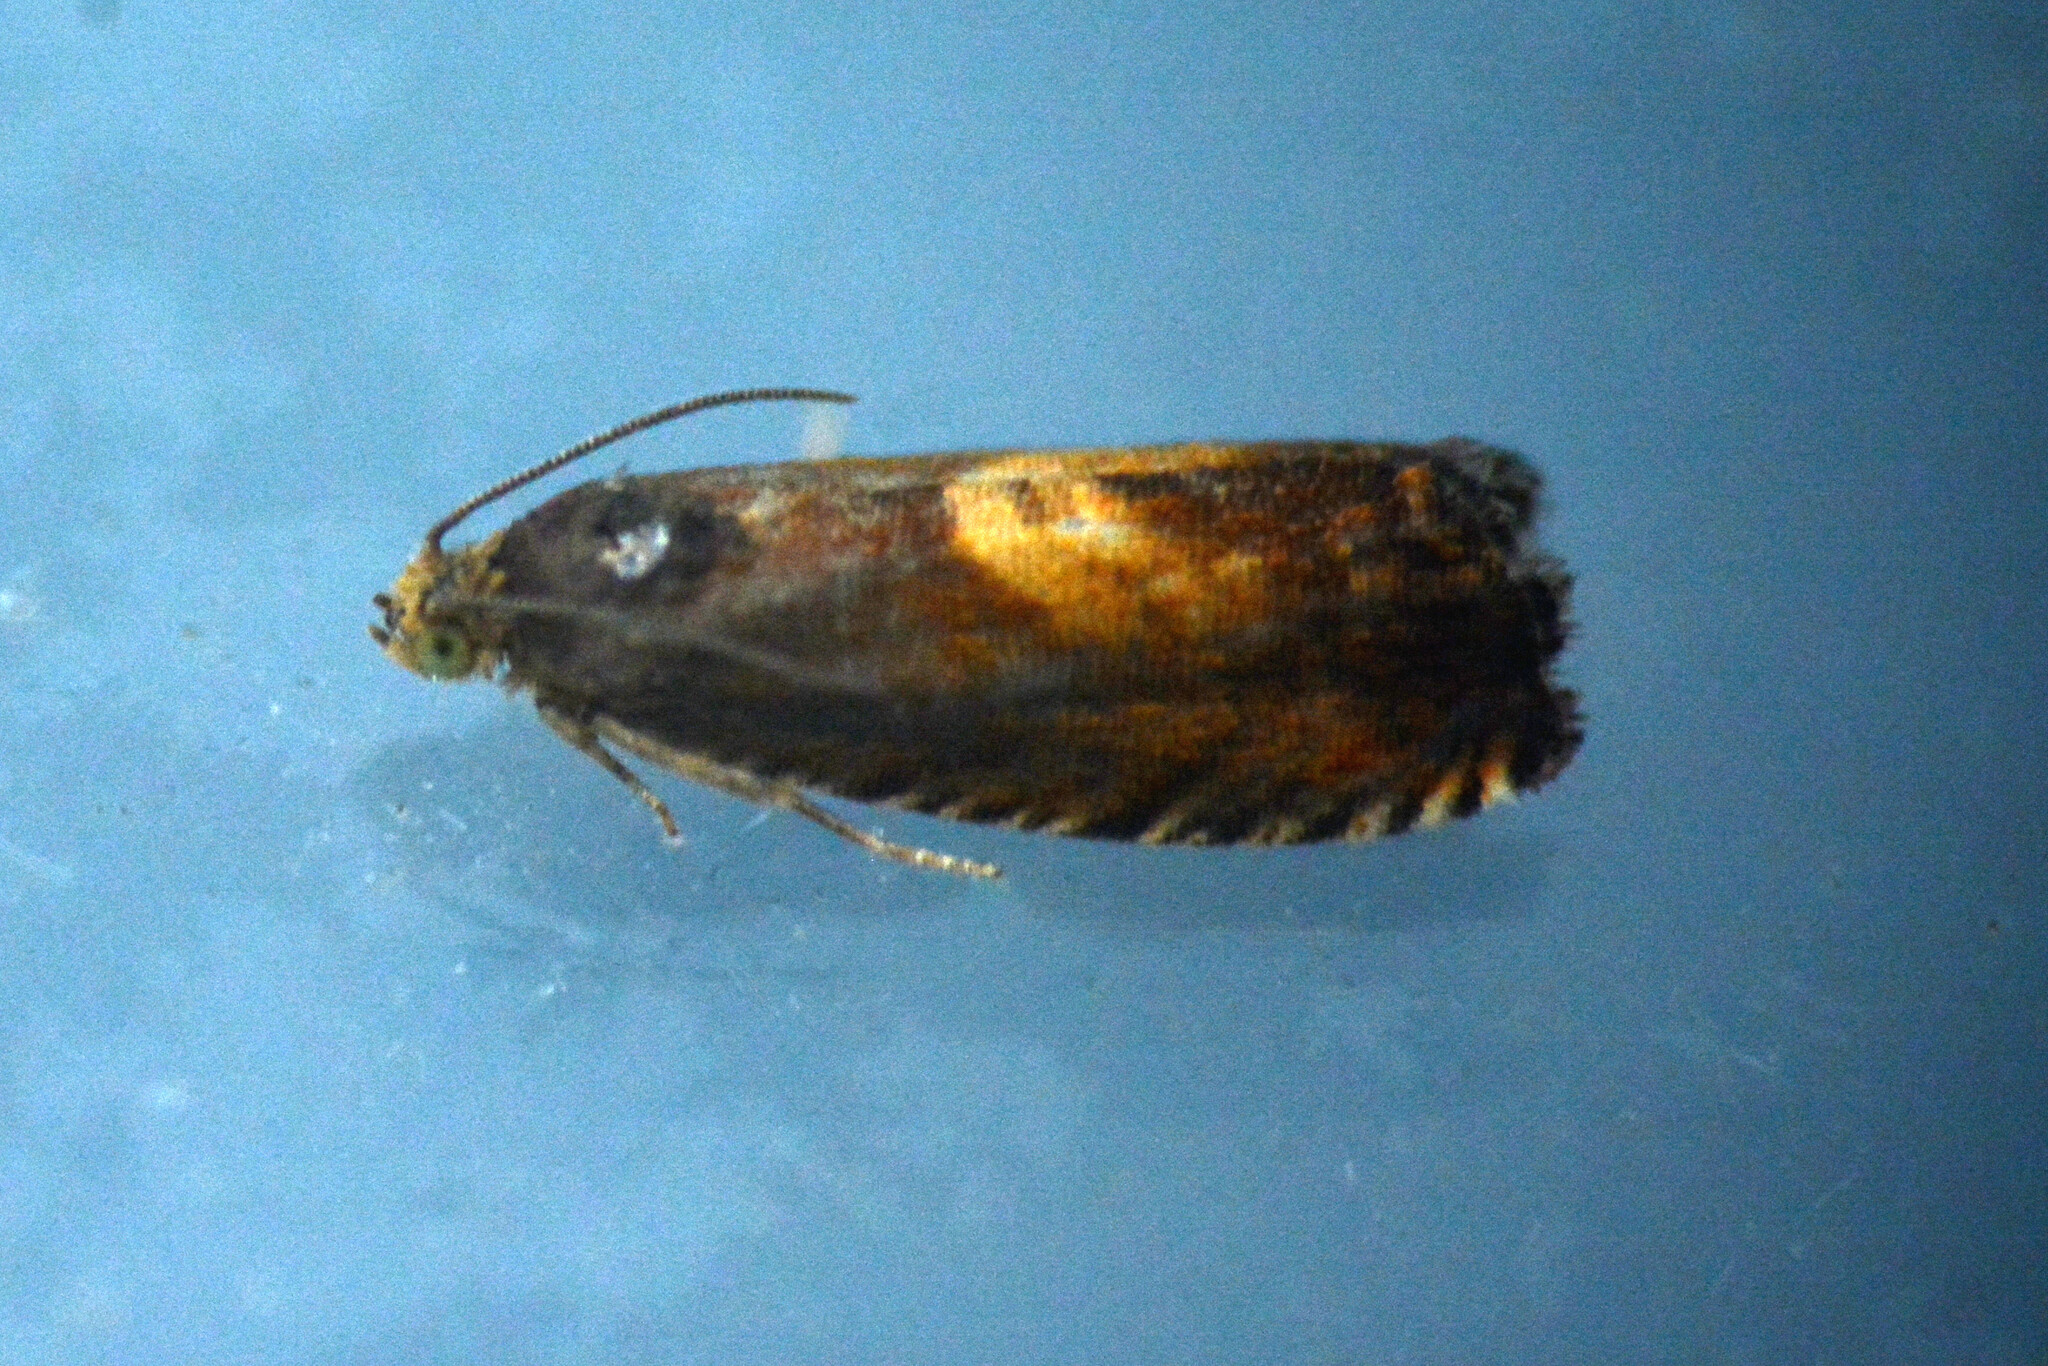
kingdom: Animalia
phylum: Arthropoda
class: Insecta
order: Lepidoptera
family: Tortricidae
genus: Dichrorampha
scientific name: Dichrorampha petiverella
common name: Common drill
